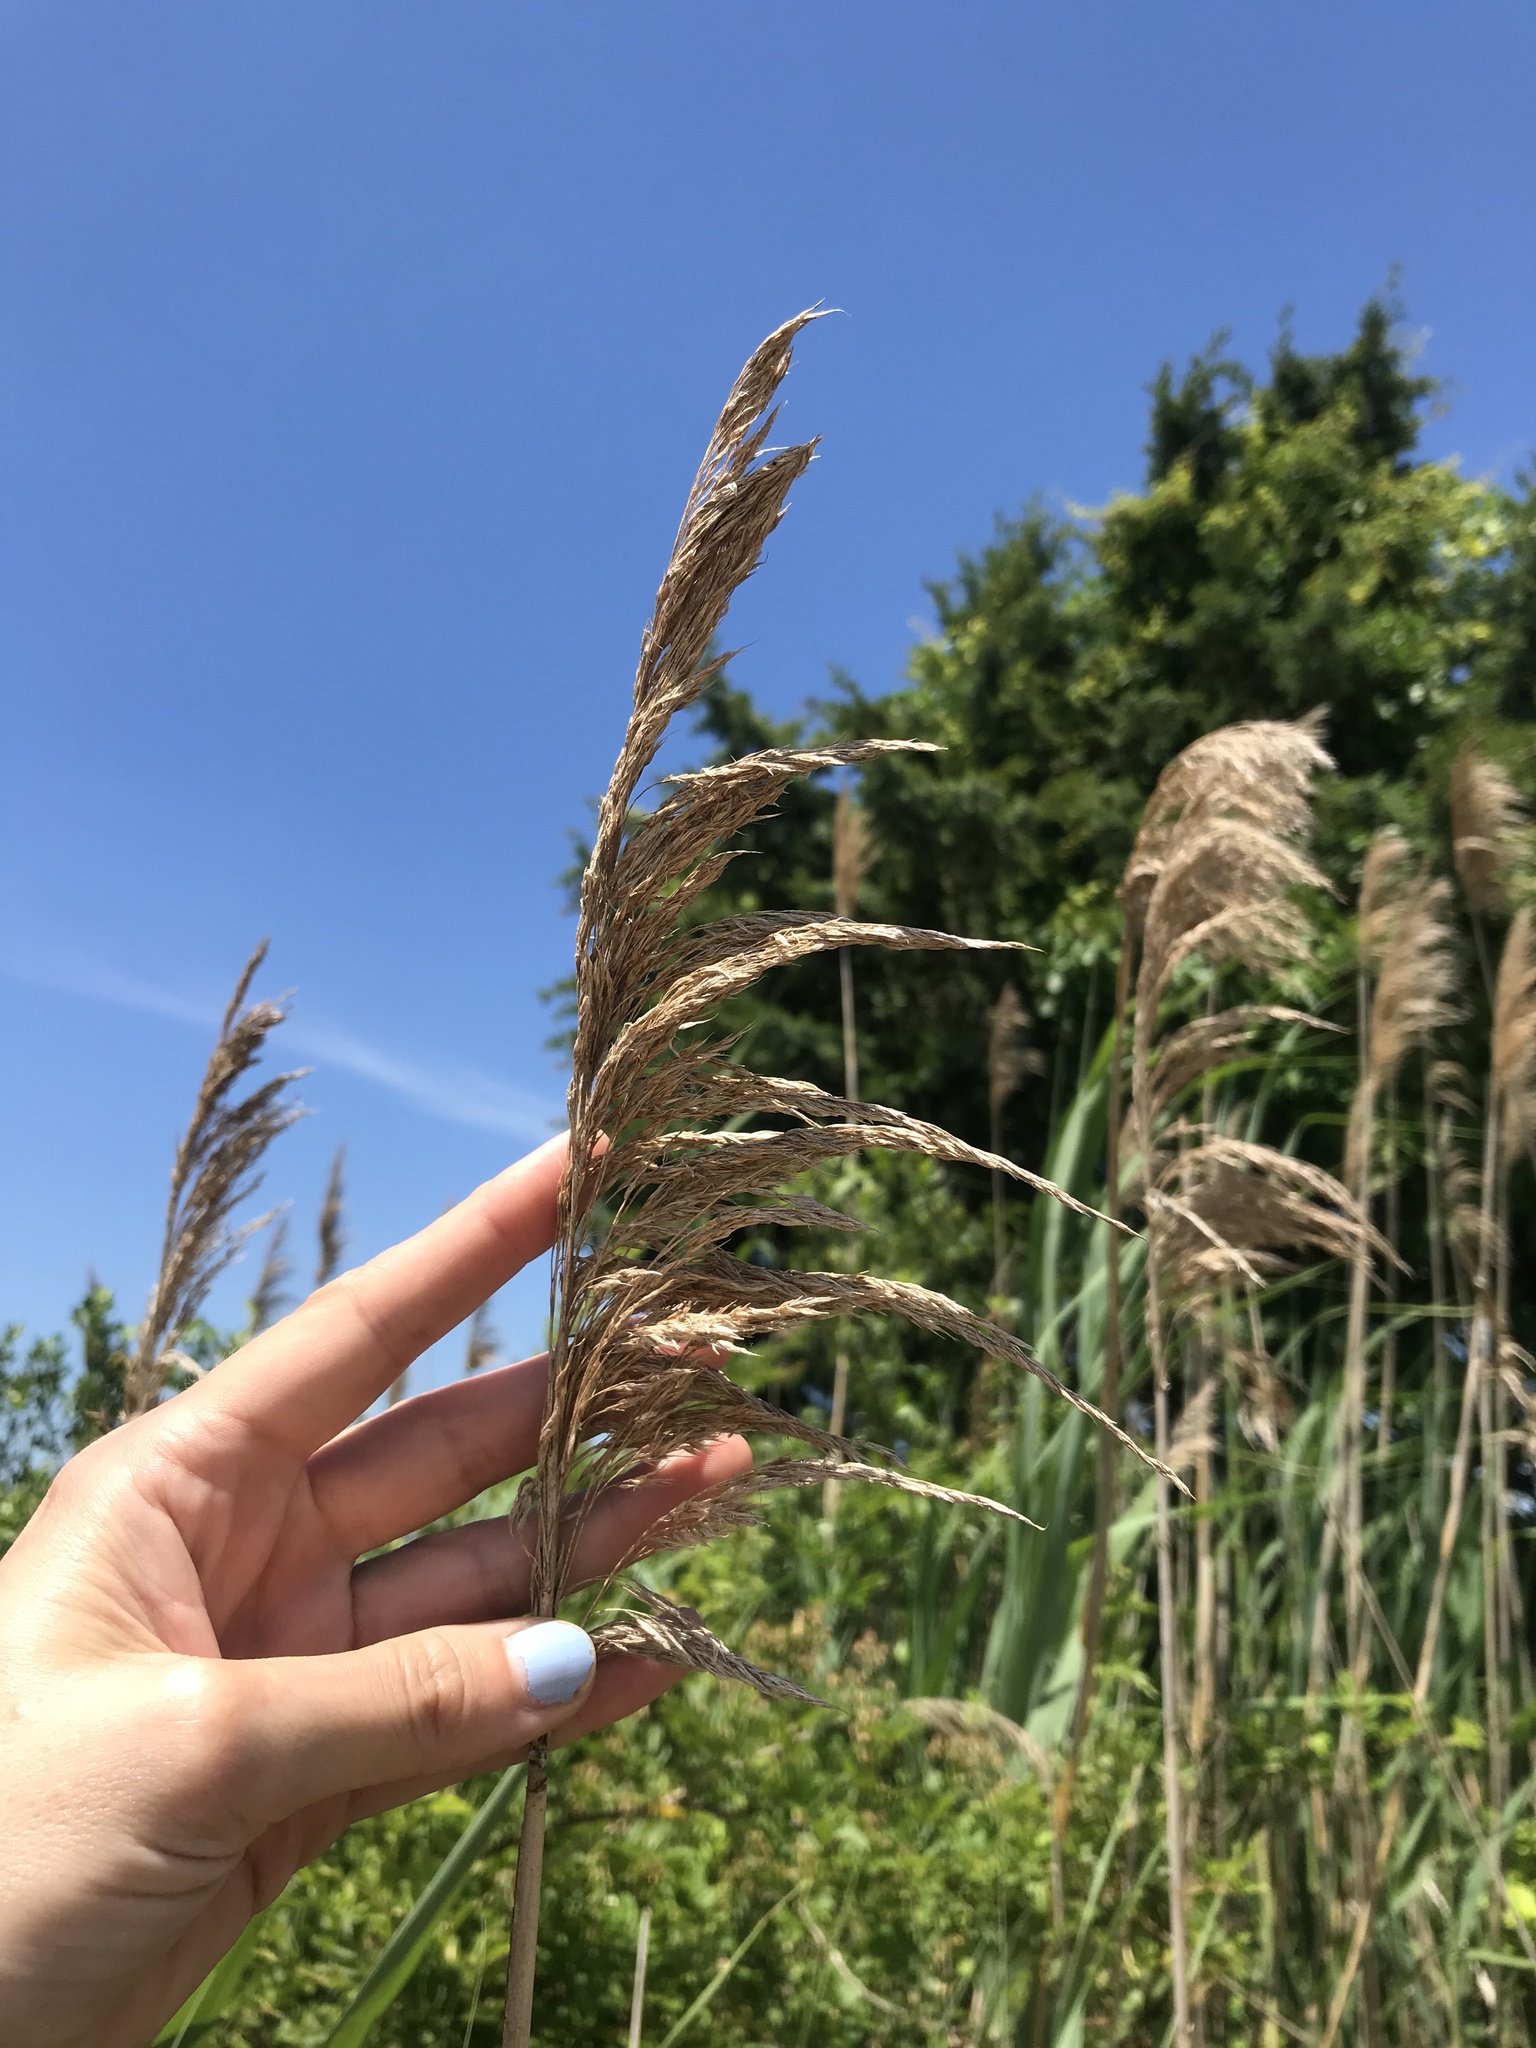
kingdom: Plantae
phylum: Tracheophyta
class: Liliopsida
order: Poales
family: Poaceae
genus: Phragmites
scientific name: Phragmites australis
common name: Common reed
